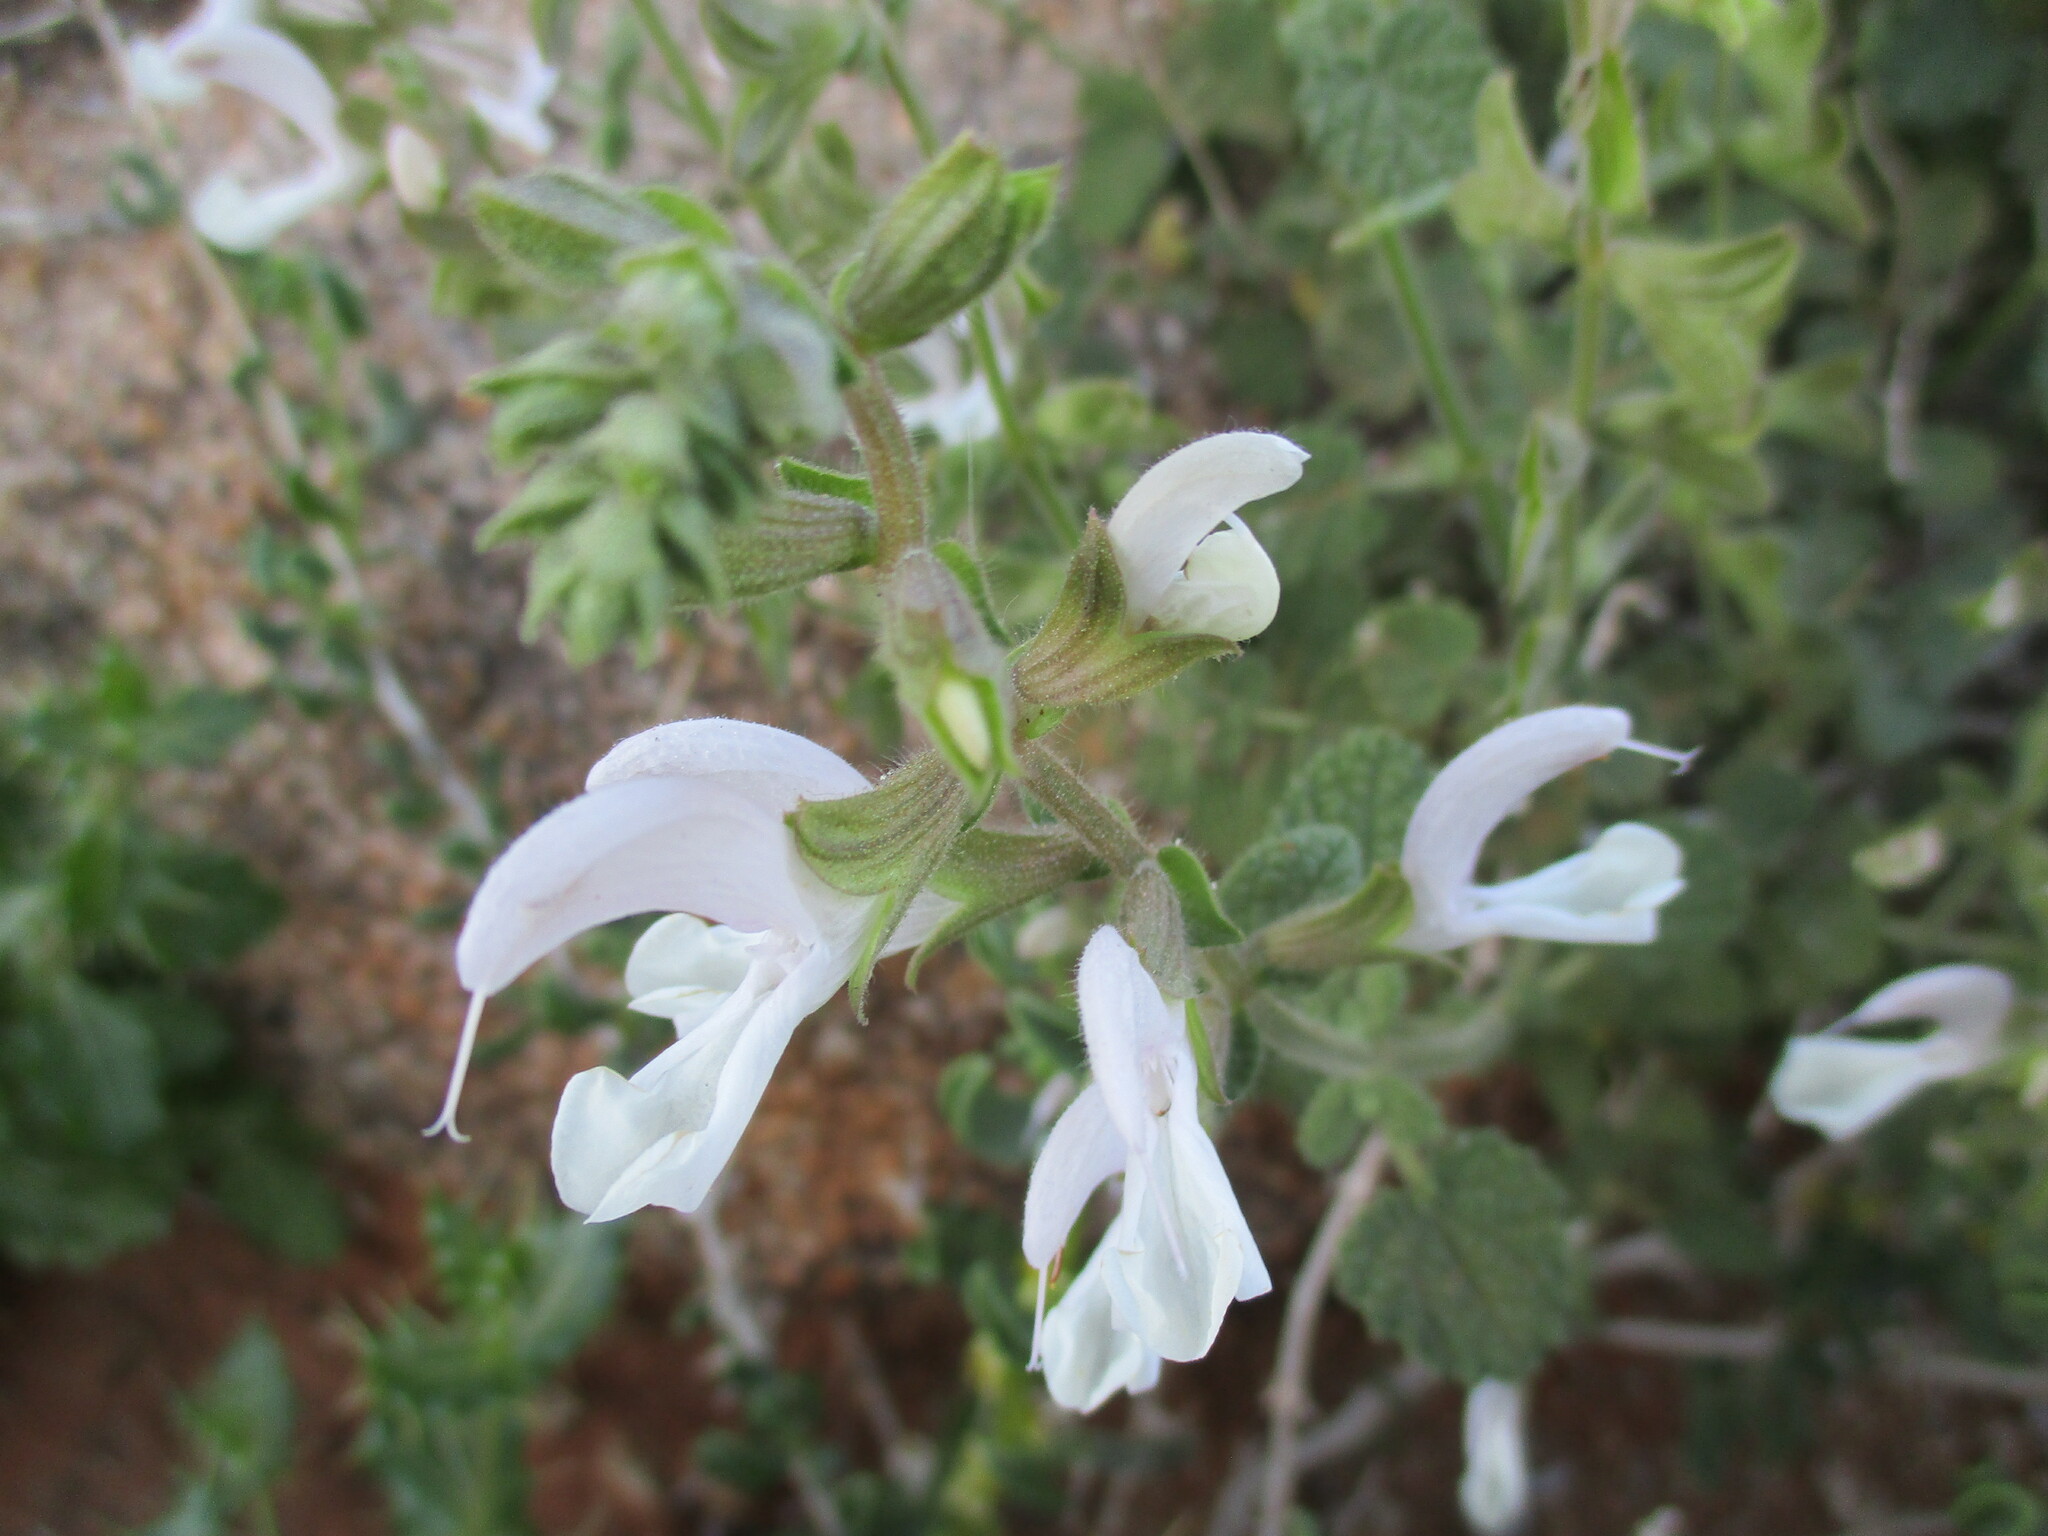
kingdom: Plantae
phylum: Tracheophyta
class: Magnoliopsida
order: Lamiales
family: Lamiaceae
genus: Salvia
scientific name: Salvia garipensis
